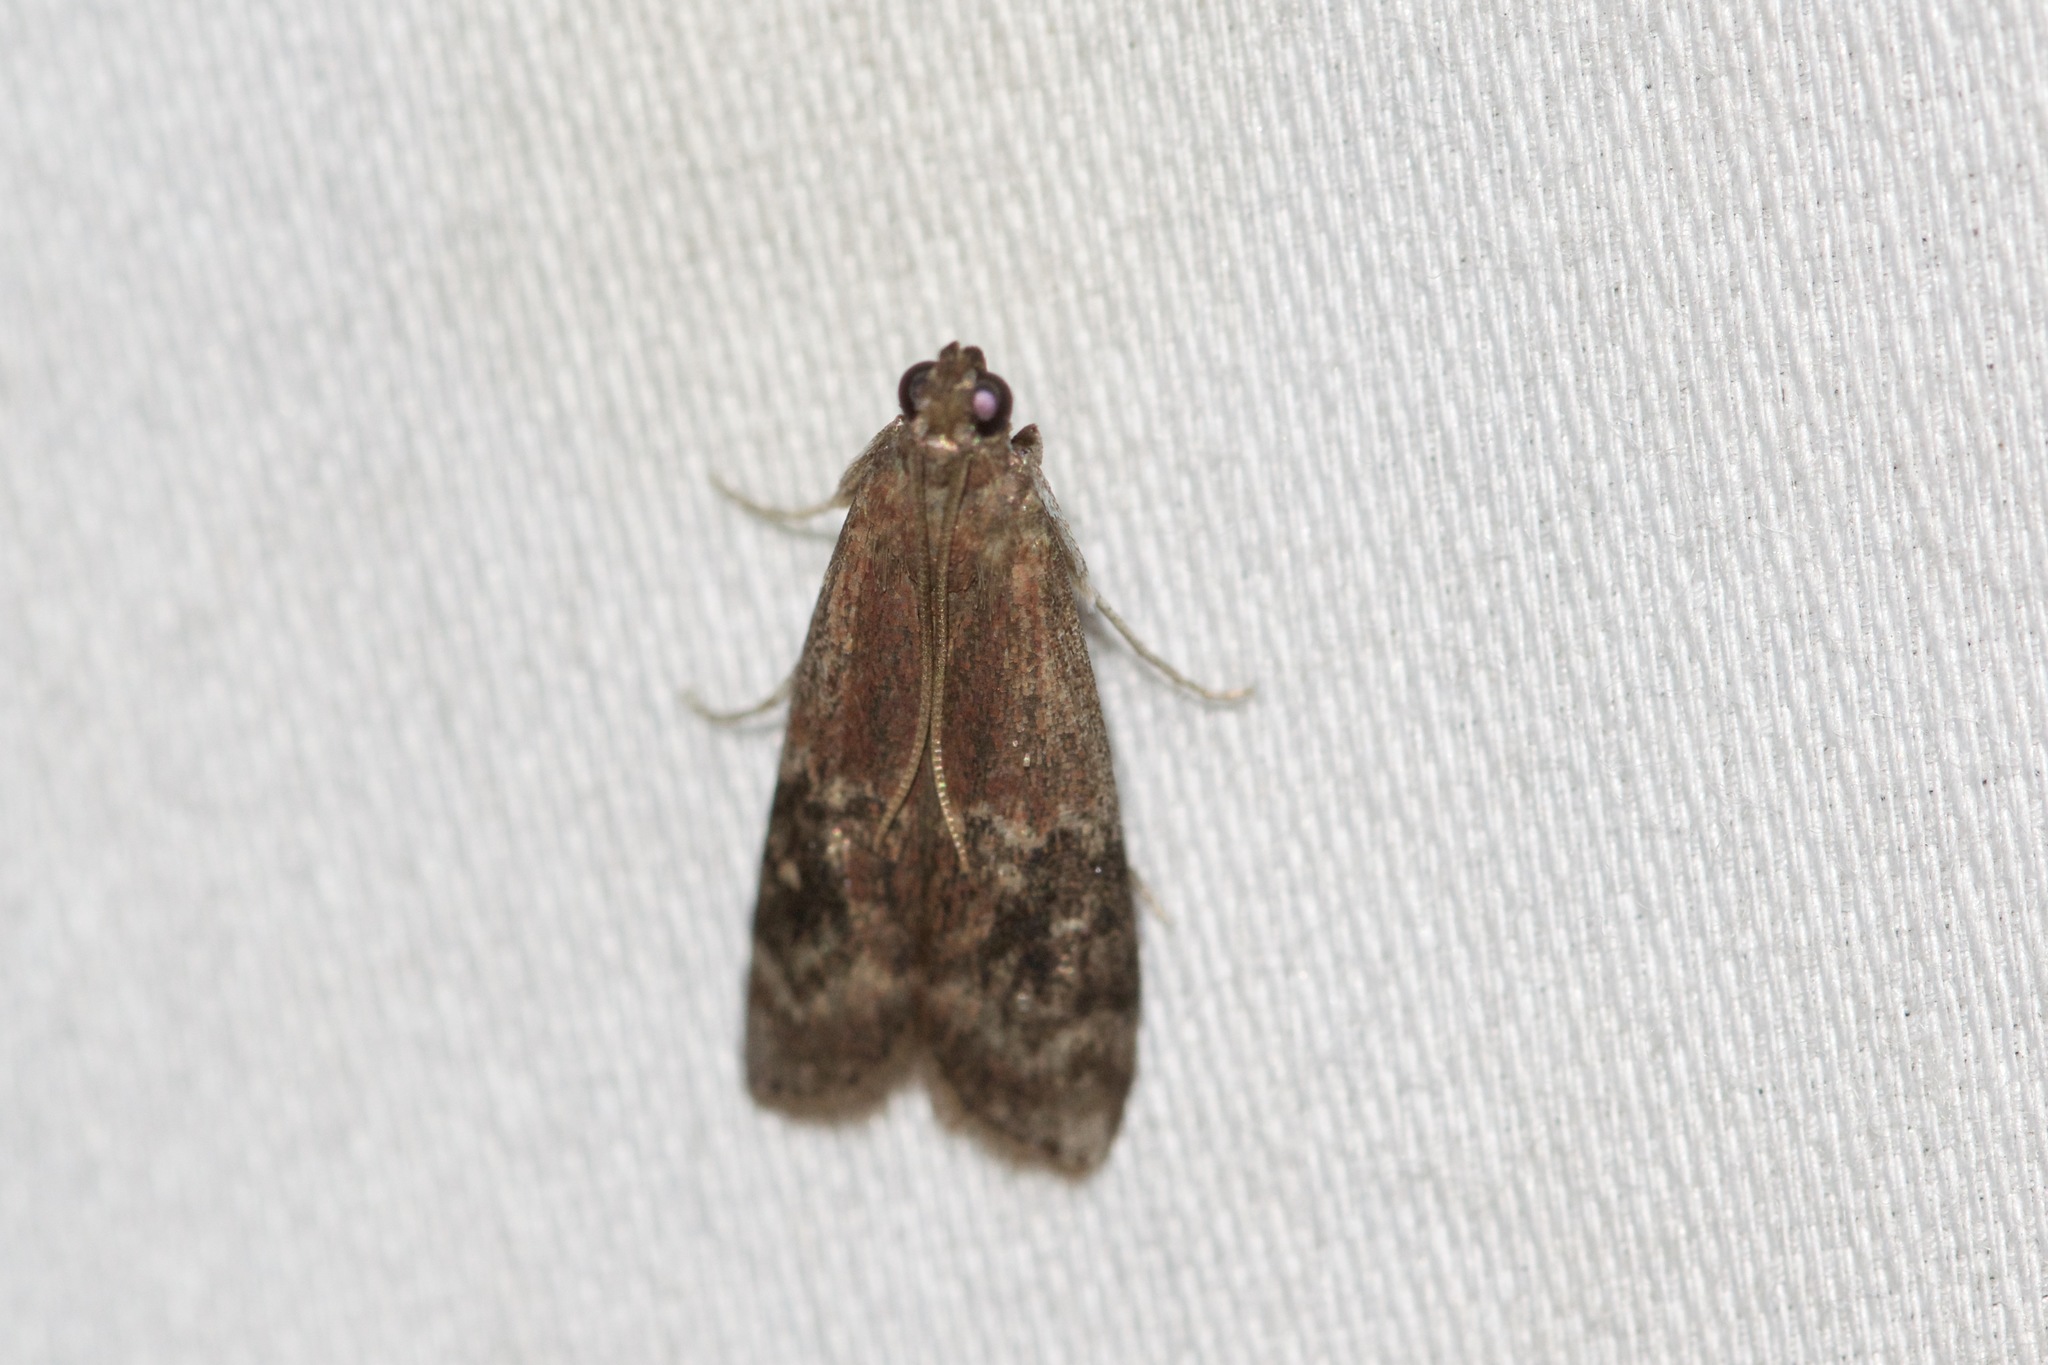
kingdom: Animalia
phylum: Arthropoda
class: Insecta
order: Lepidoptera
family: Pyralidae
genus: Euzophera
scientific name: Euzophera semifuneralis
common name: American plum borer moth
